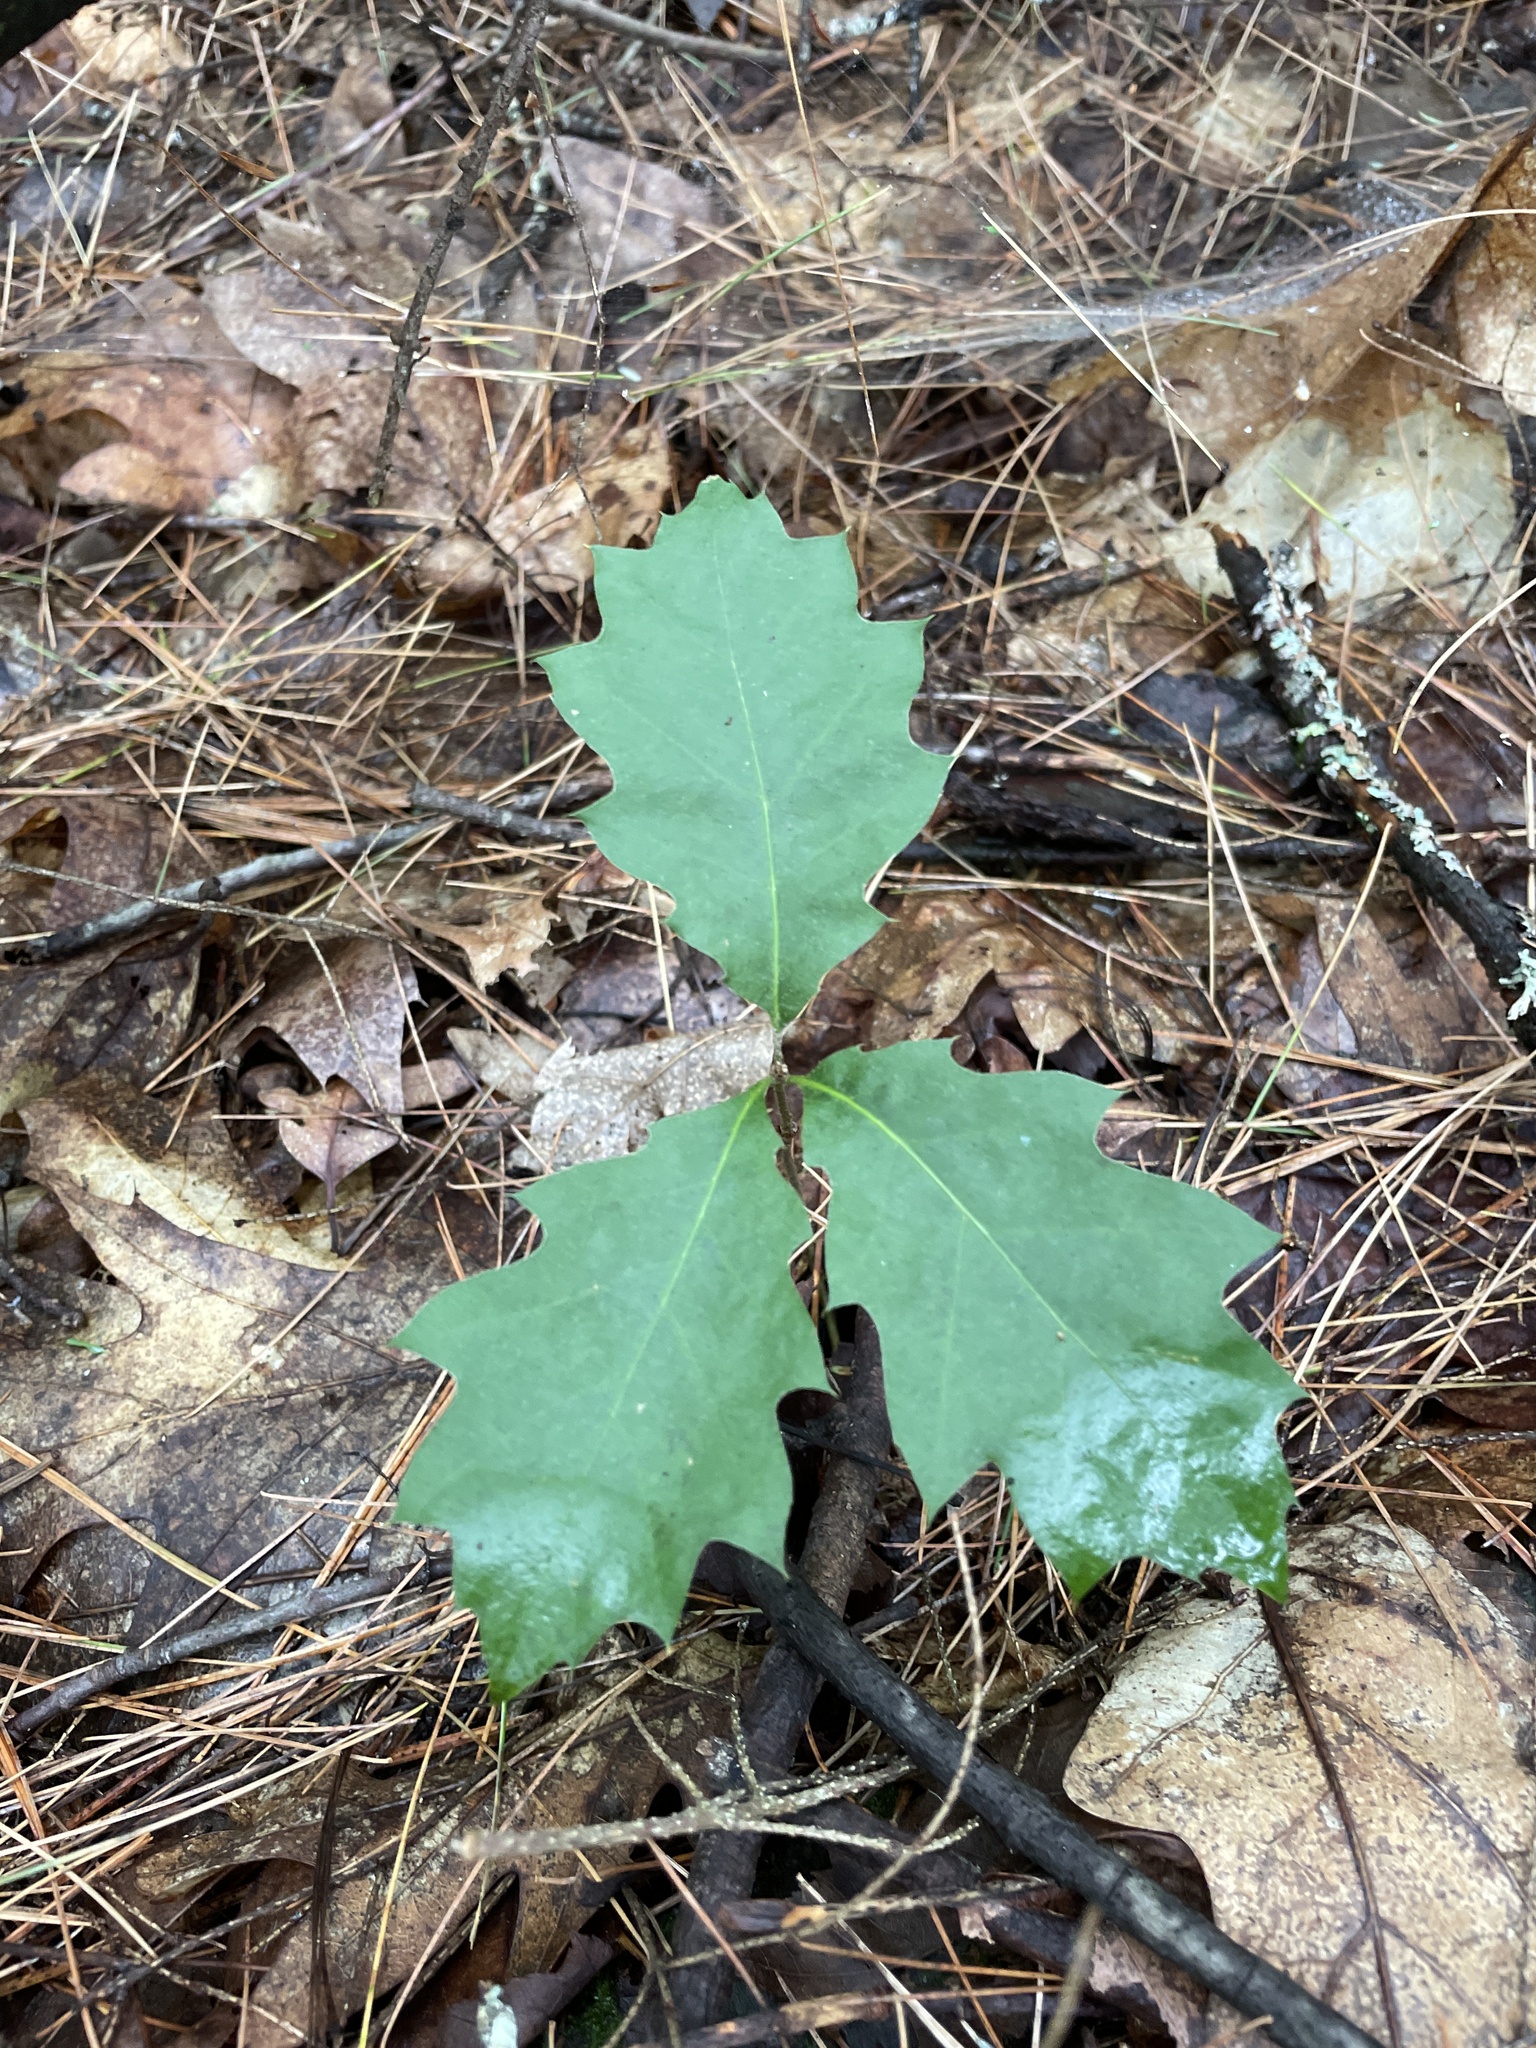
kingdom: Plantae
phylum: Tracheophyta
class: Magnoliopsida
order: Fagales
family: Fagaceae
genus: Quercus
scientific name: Quercus rubra
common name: Red oak
